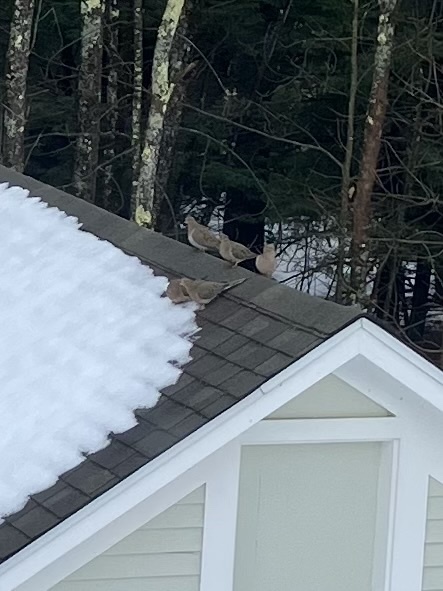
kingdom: Animalia
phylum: Chordata
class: Aves
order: Columbiformes
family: Columbidae
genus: Zenaida
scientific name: Zenaida macroura
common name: Mourning dove
